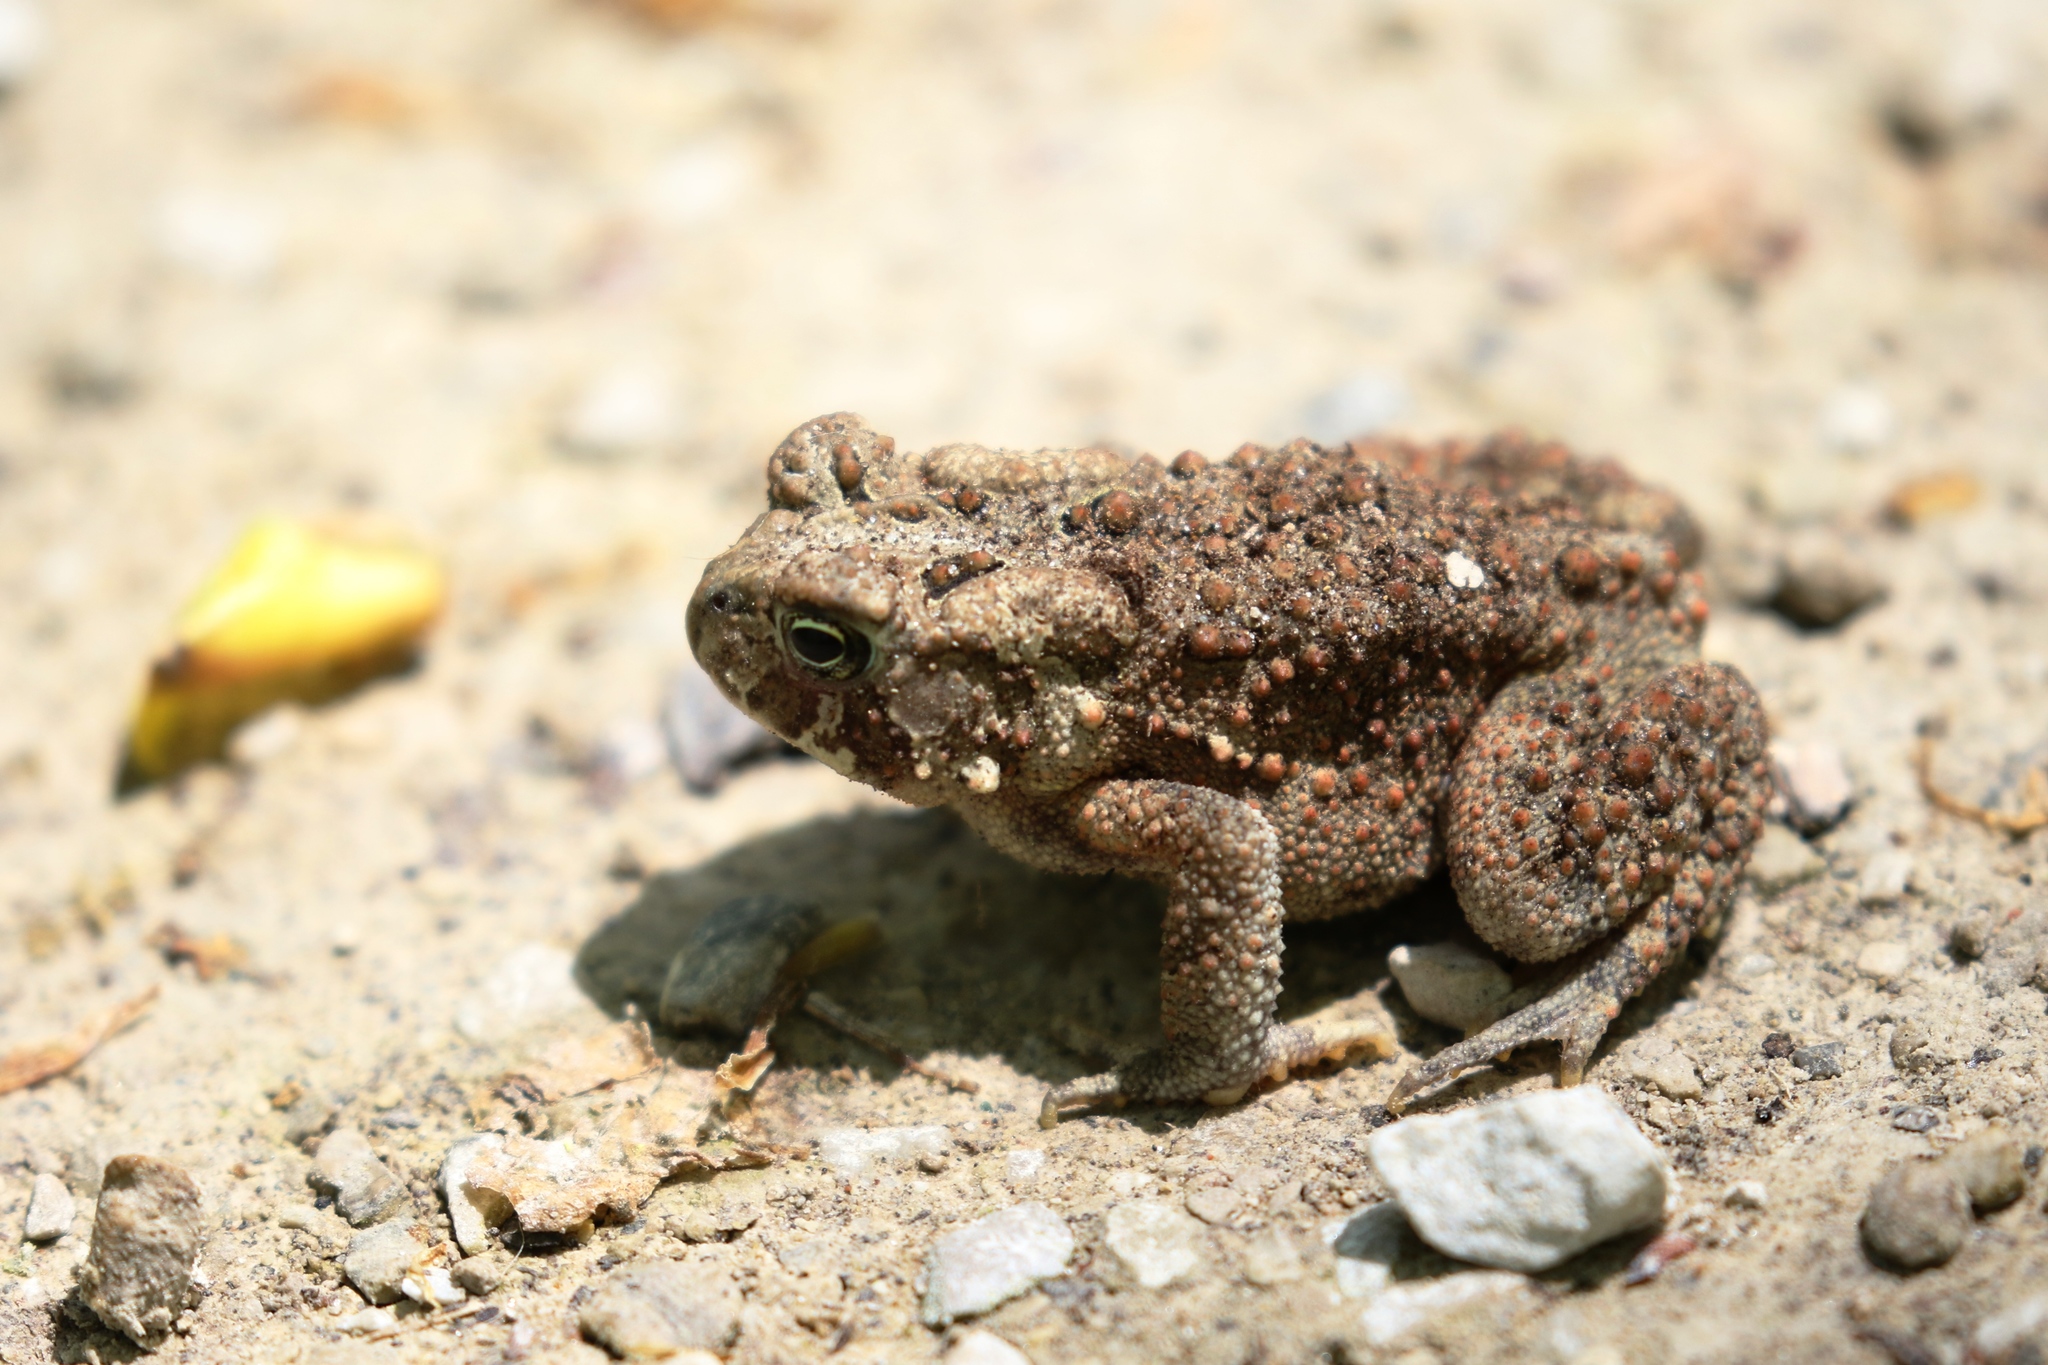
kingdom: Animalia
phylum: Chordata
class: Amphibia
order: Anura
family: Bufonidae
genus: Anaxyrus
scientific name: Anaxyrus americanus
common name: American toad
